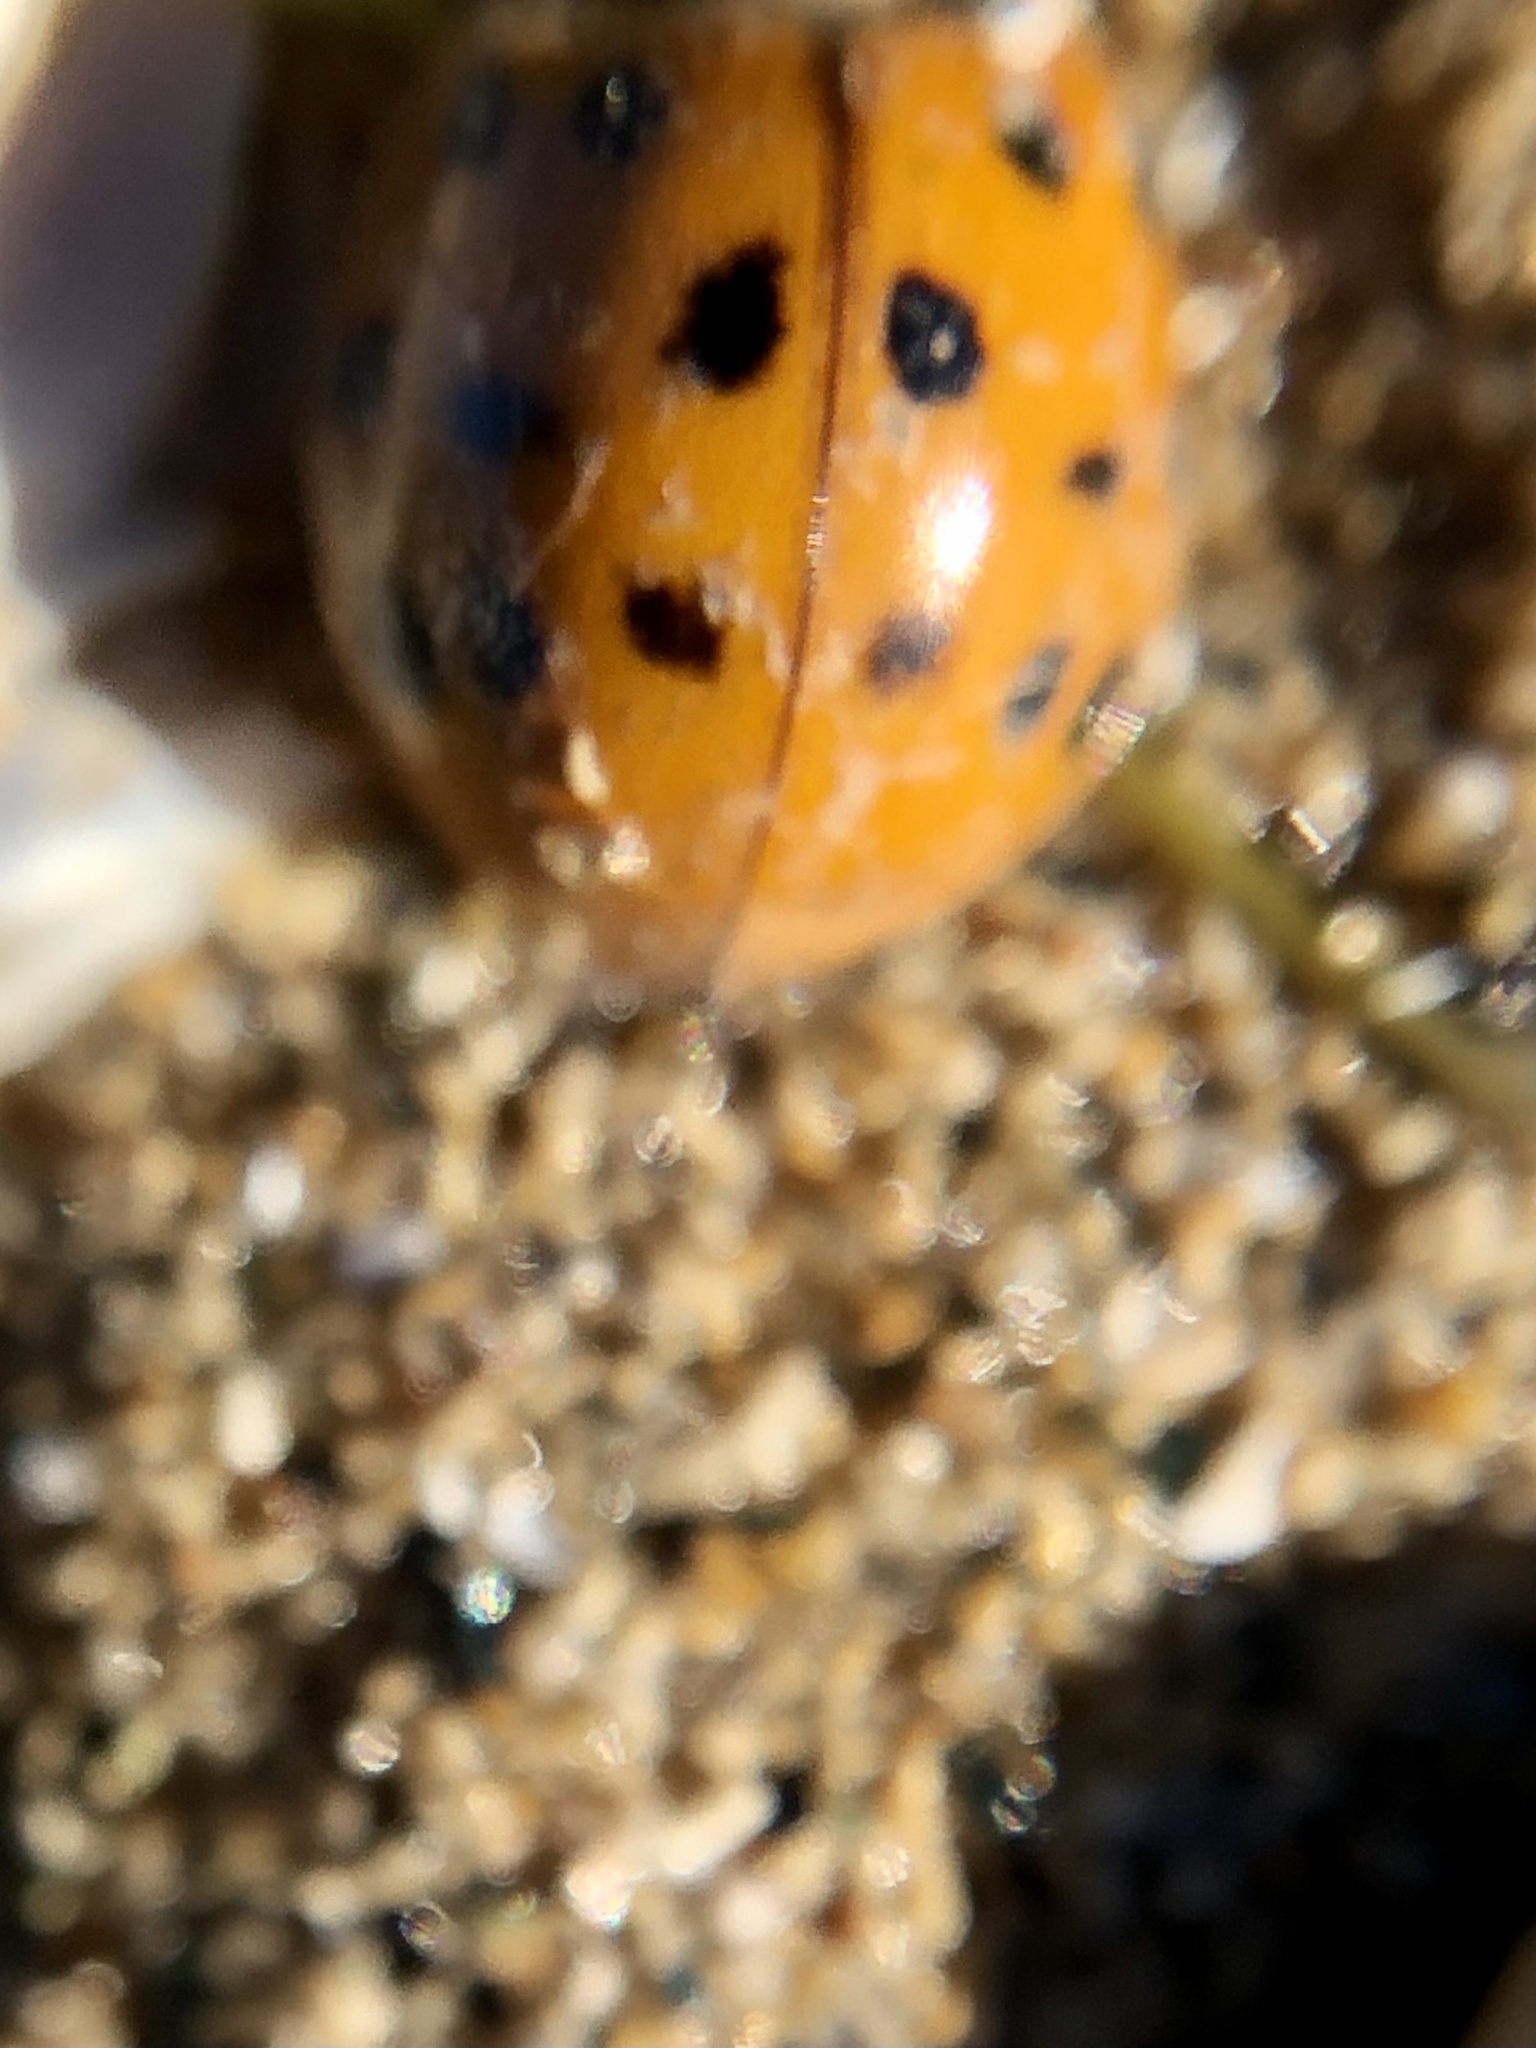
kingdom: Animalia
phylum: Arthropoda
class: Insecta
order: Coleoptera
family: Coccinellidae
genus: Harmonia
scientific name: Harmonia axyridis
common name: Harlequin ladybird
